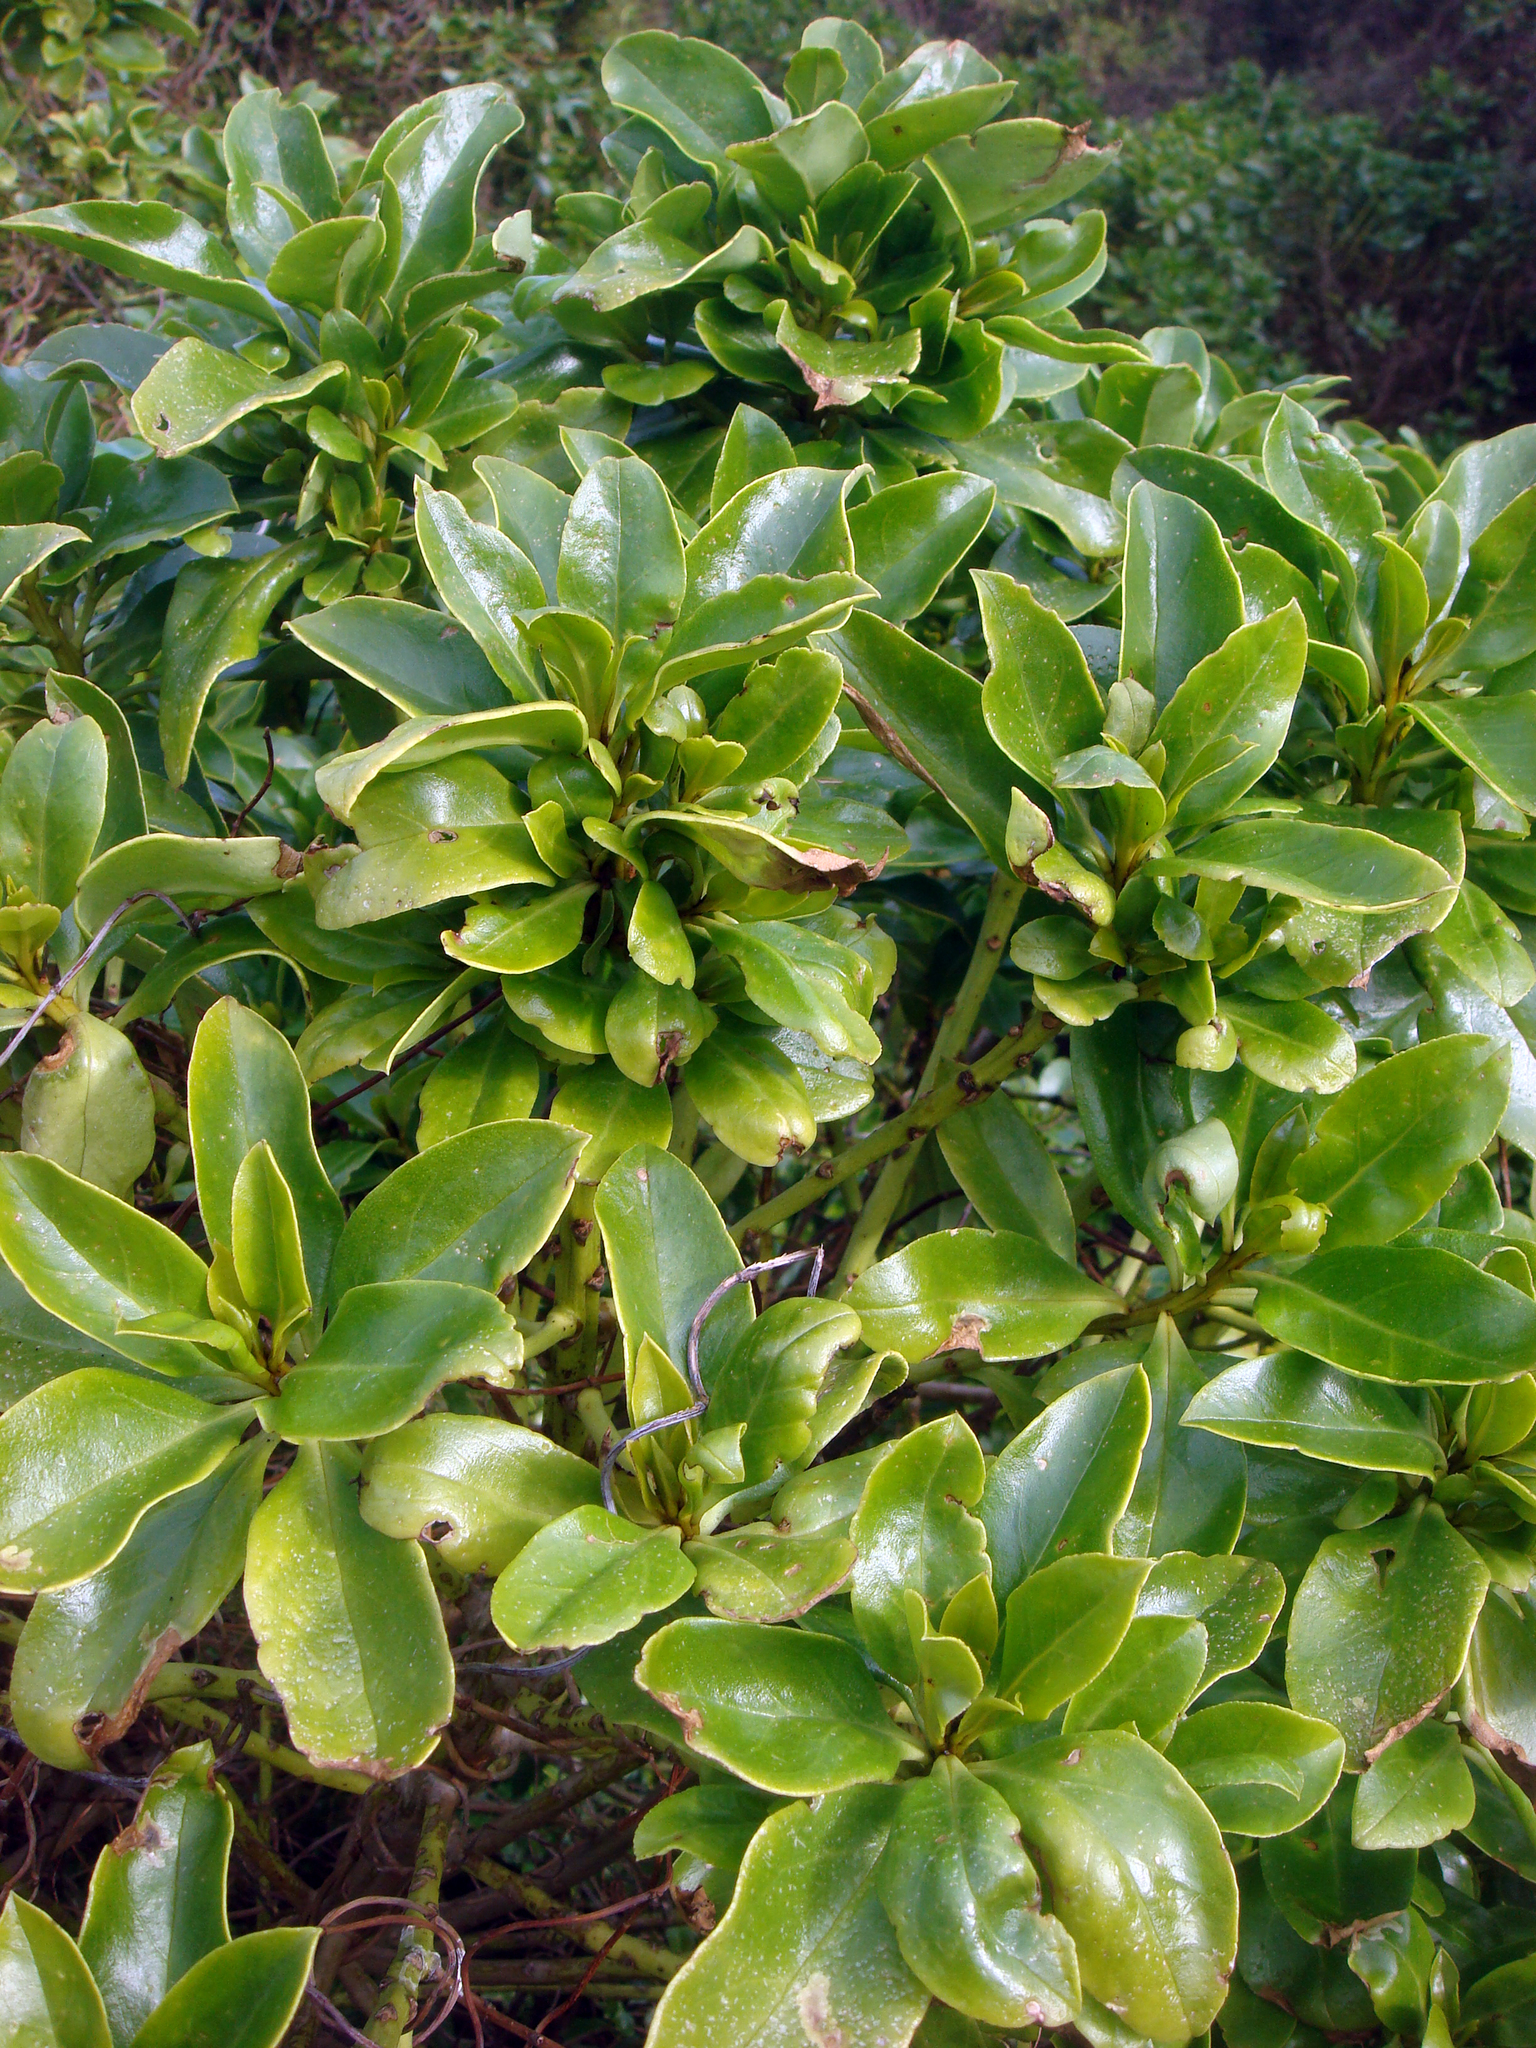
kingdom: Plantae
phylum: Tracheophyta
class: Magnoliopsida
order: Lamiales
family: Scrophulariaceae
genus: Myoporum
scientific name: Myoporum semotum
